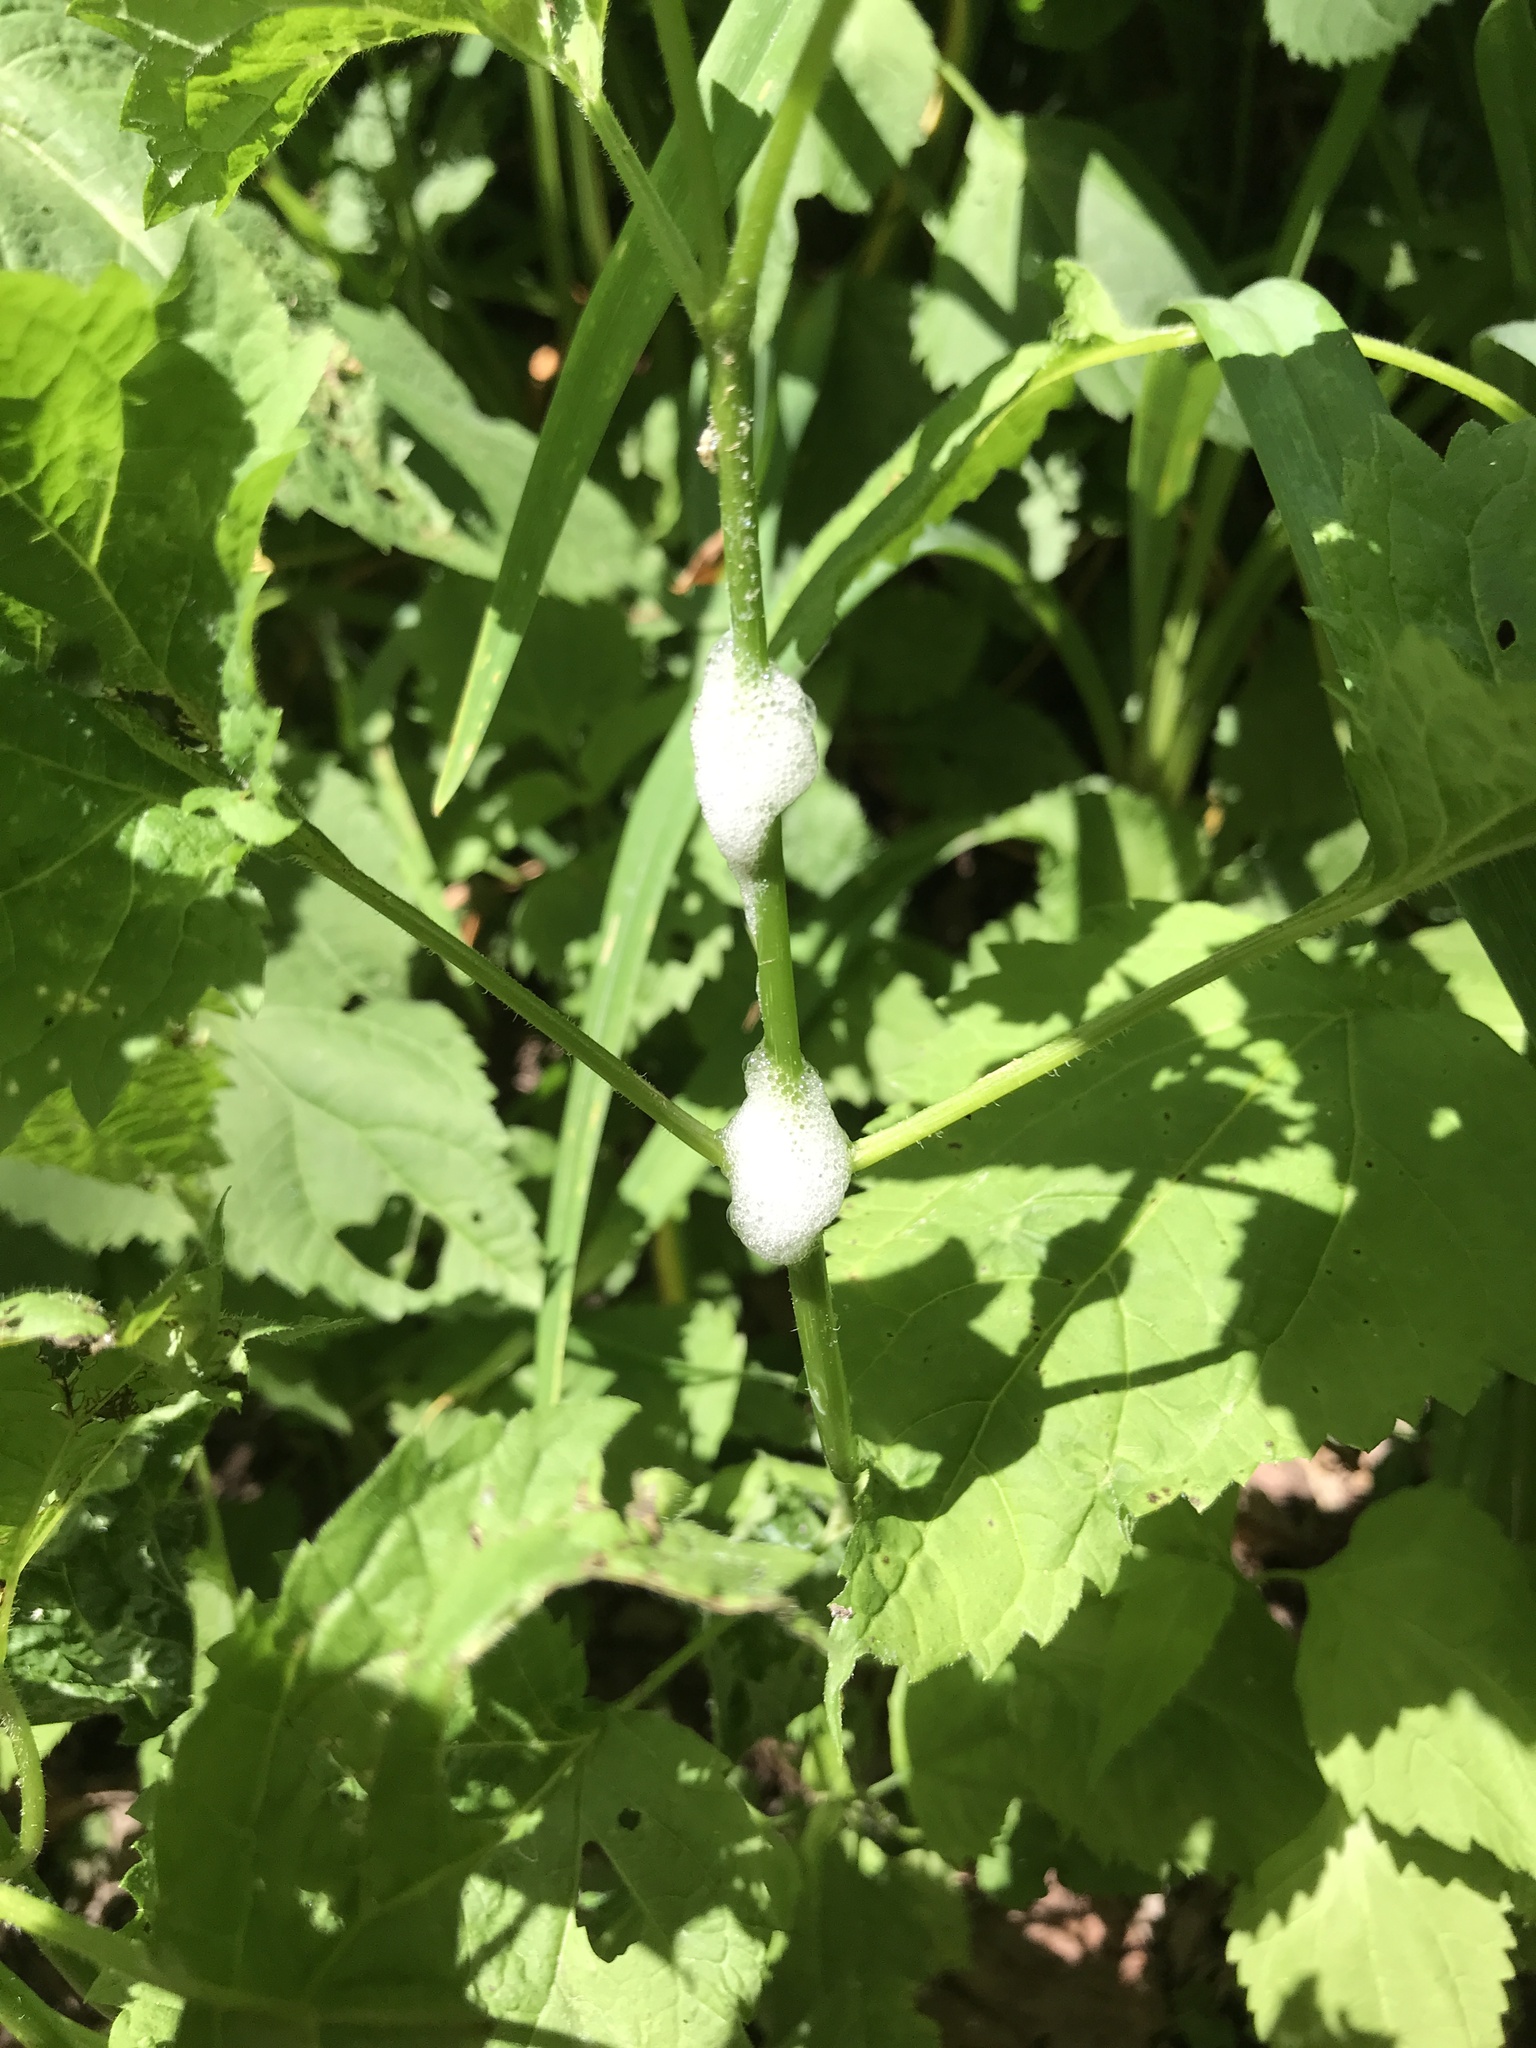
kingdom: Animalia
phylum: Arthropoda
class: Insecta
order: Hemiptera
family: Aphrophoridae
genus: Philaenus
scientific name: Philaenus spumarius
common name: Meadow spittlebug
